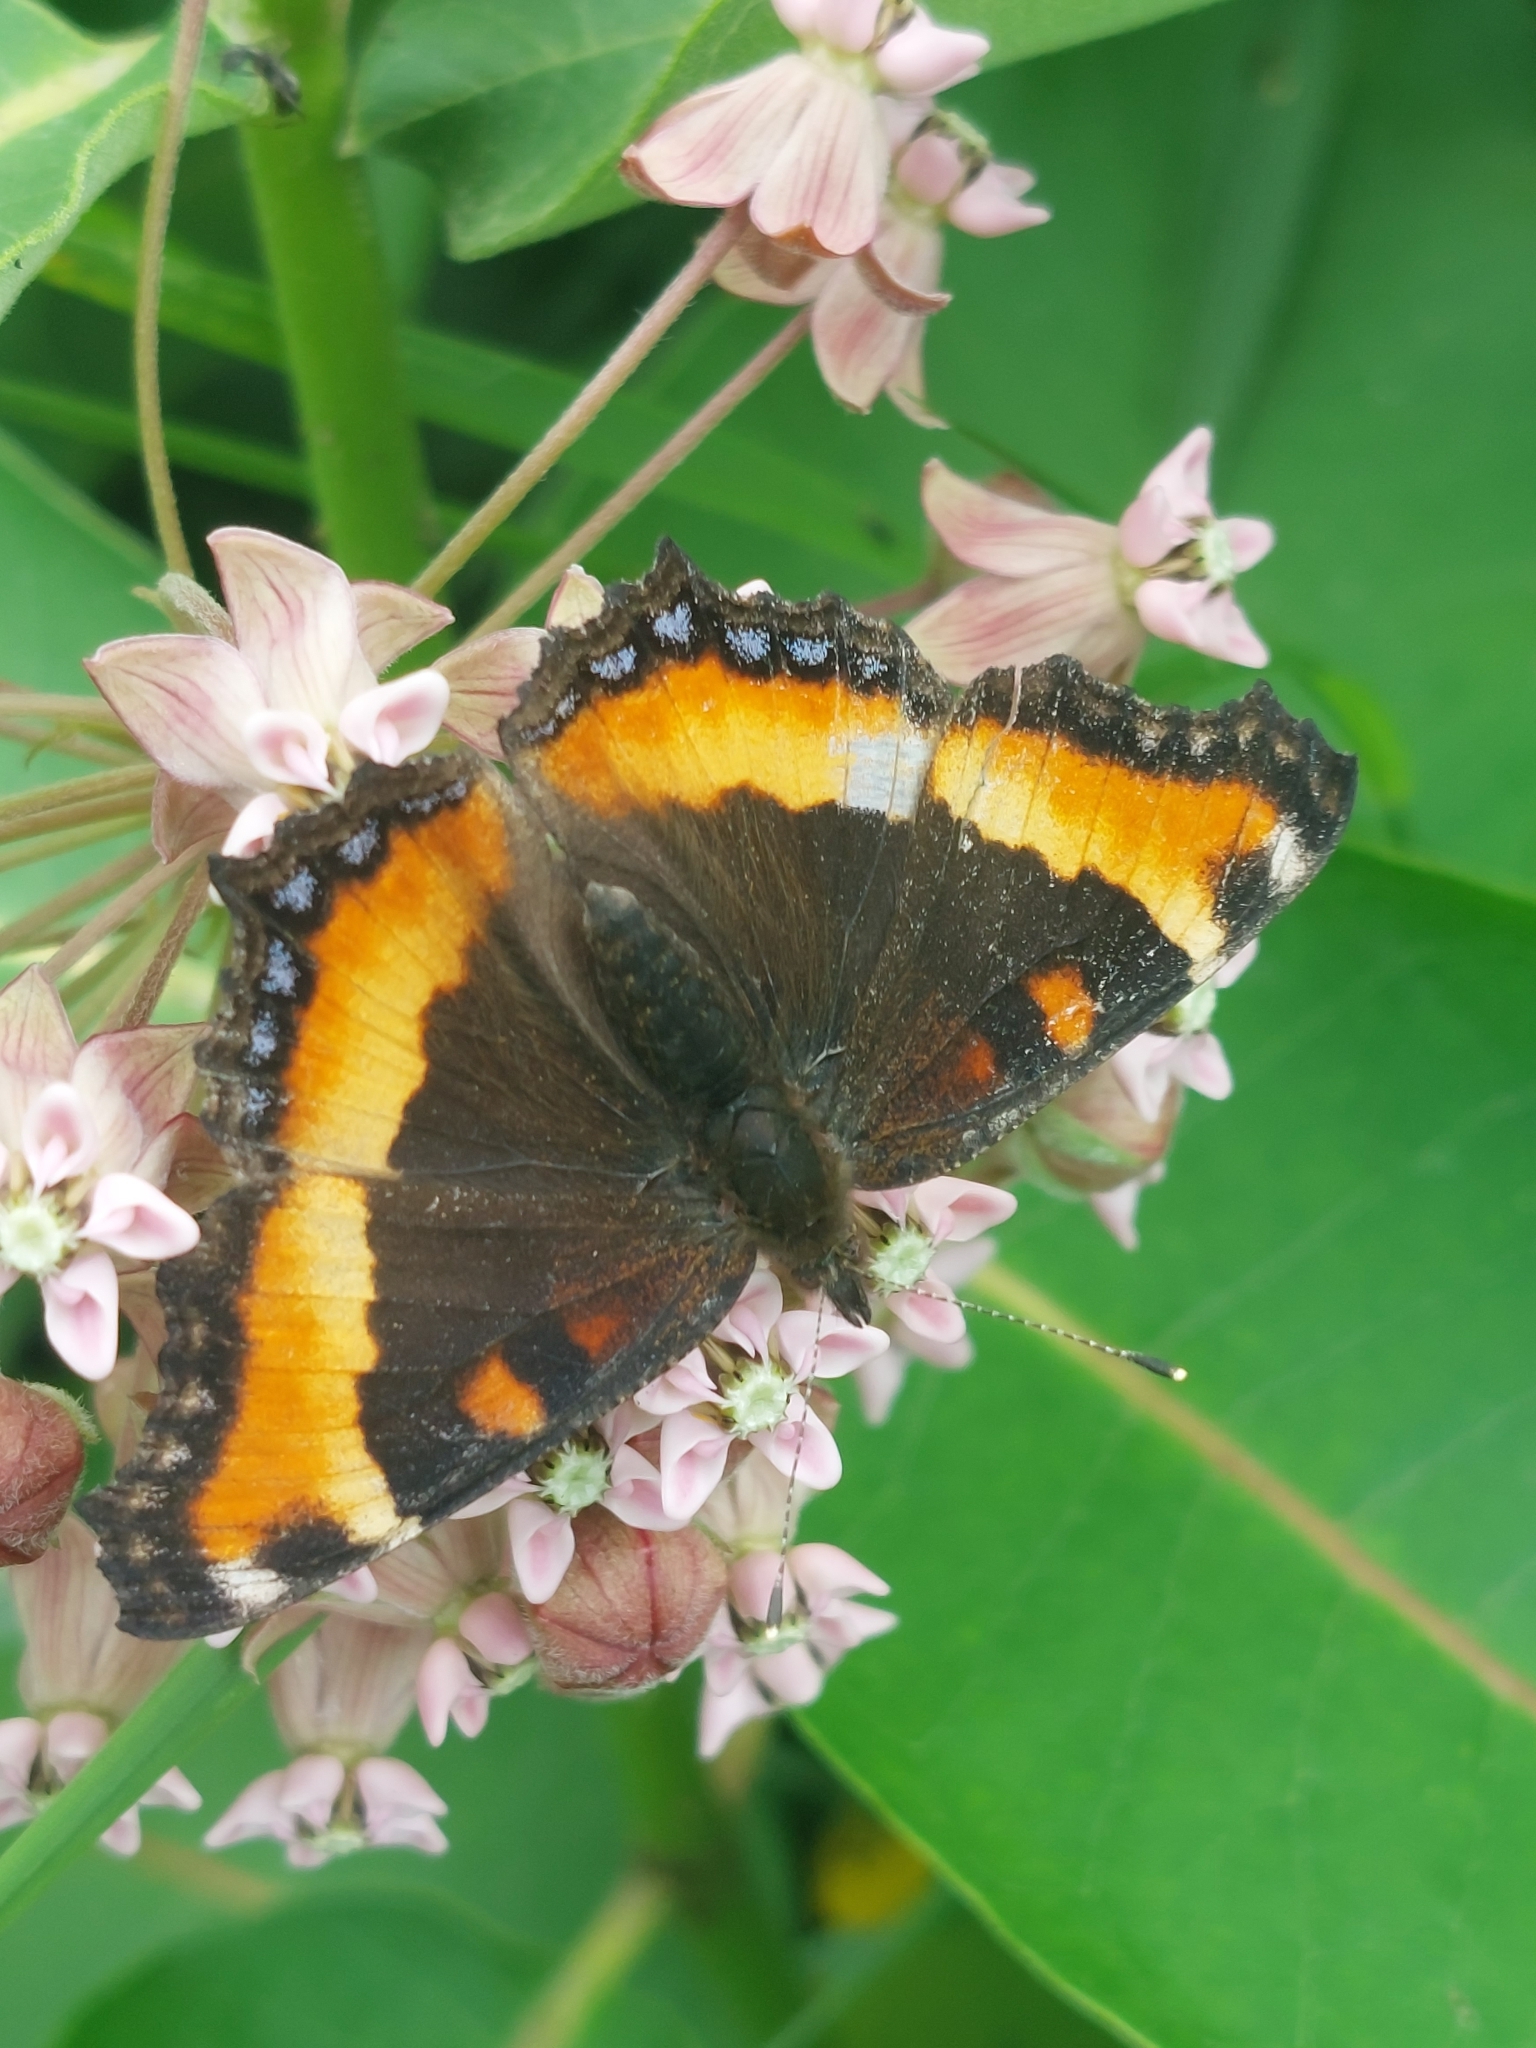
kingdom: Animalia
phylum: Arthropoda
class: Insecta
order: Lepidoptera
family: Nymphalidae
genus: Aglais
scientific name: Aglais milberti
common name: Milbert's tortoiseshell
